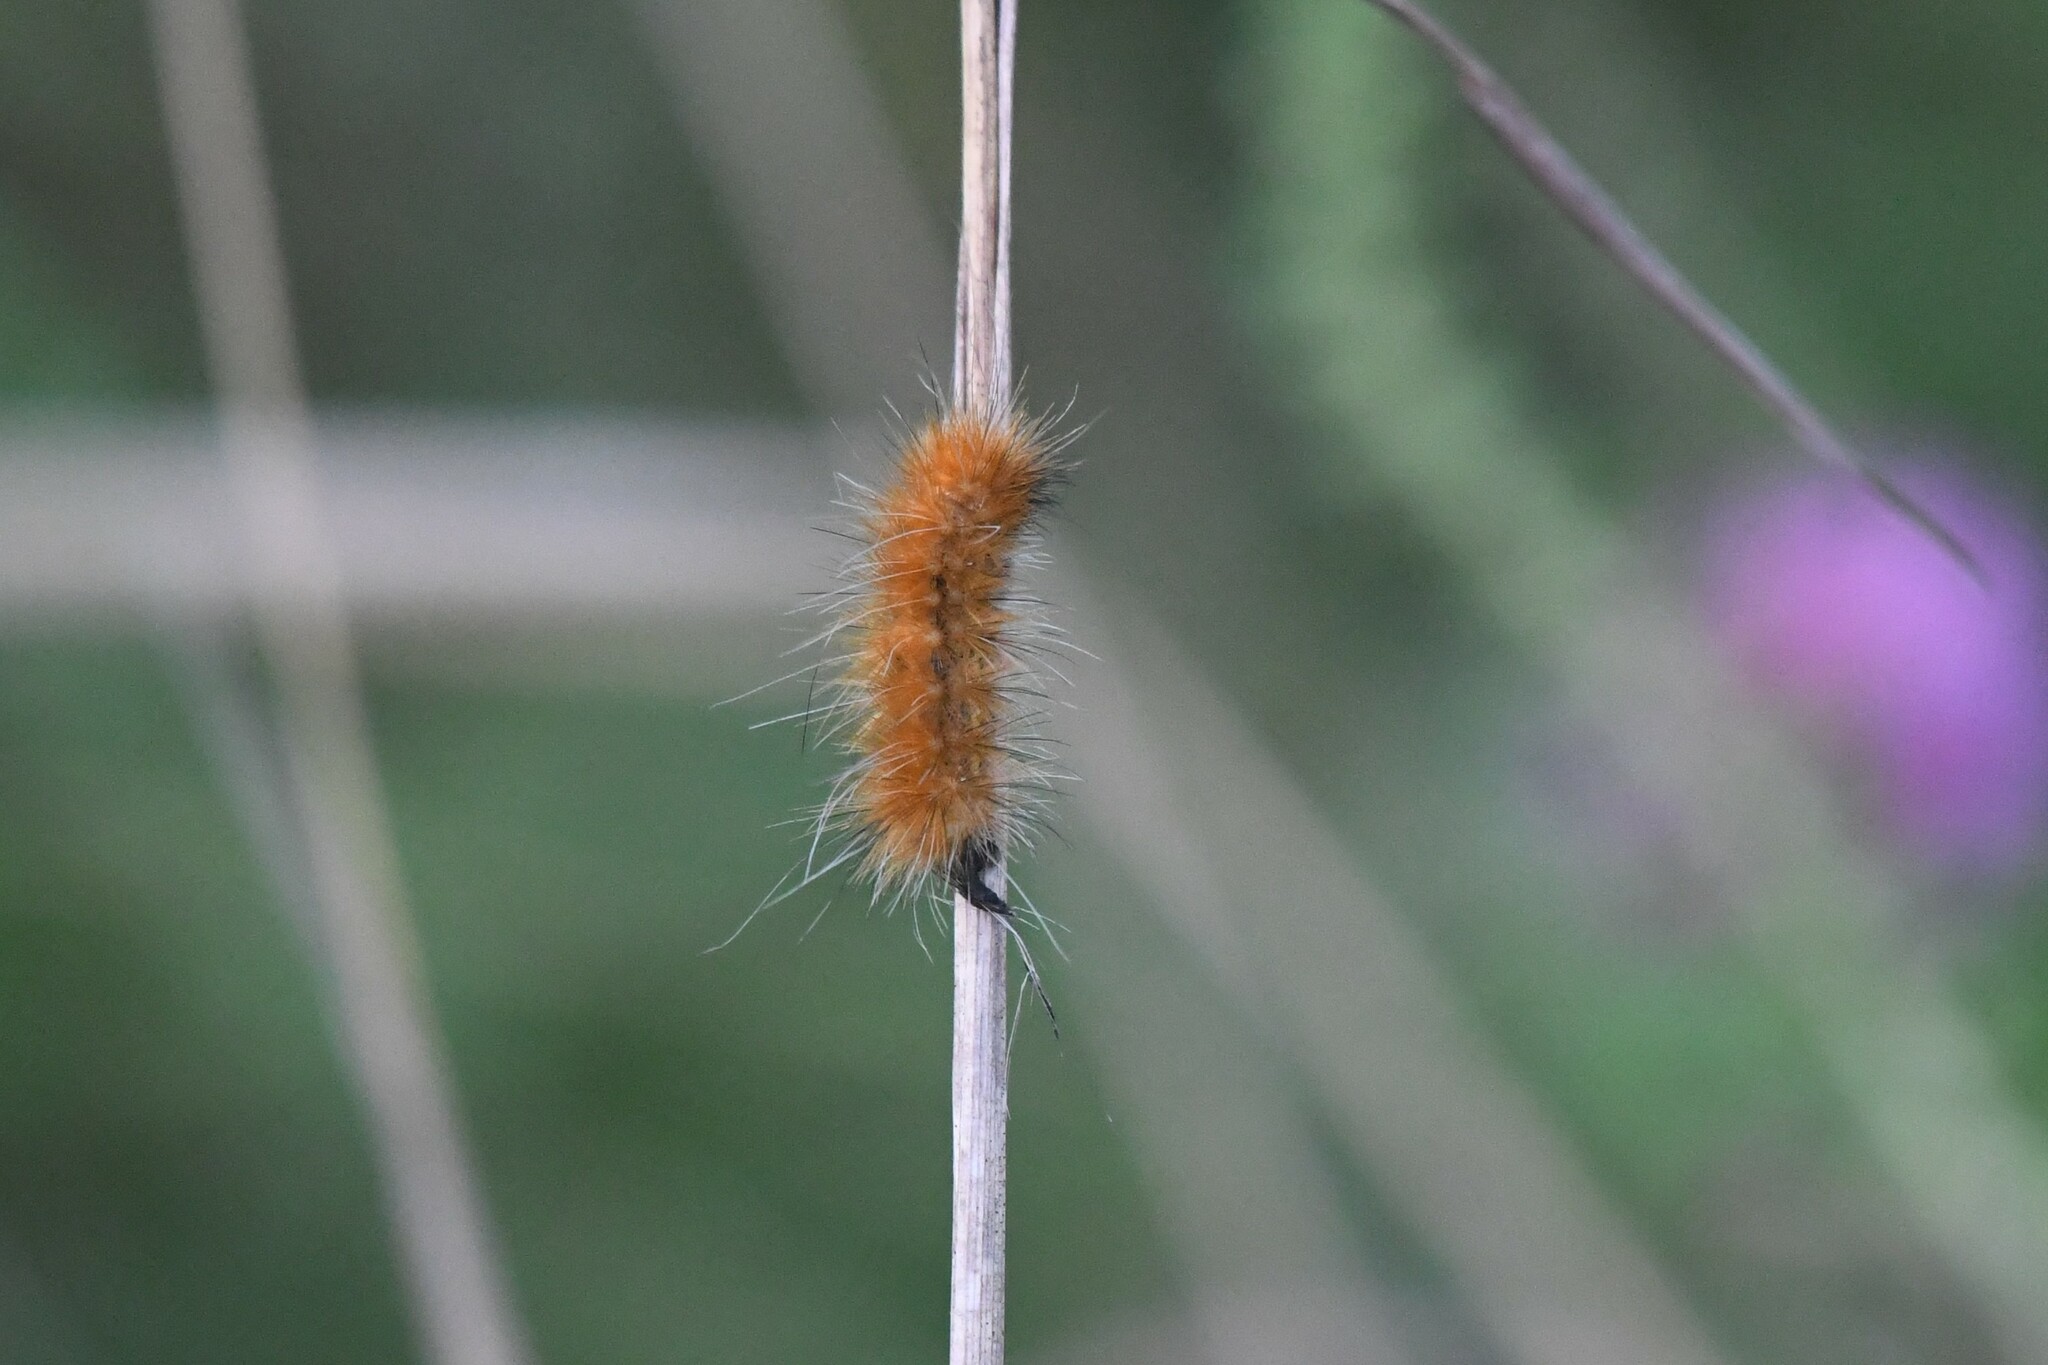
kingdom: Animalia
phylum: Arthropoda
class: Insecta
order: Lepidoptera
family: Erebidae
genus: Spilosoma
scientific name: Spilosoma virginica
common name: Virginia tiger moth
